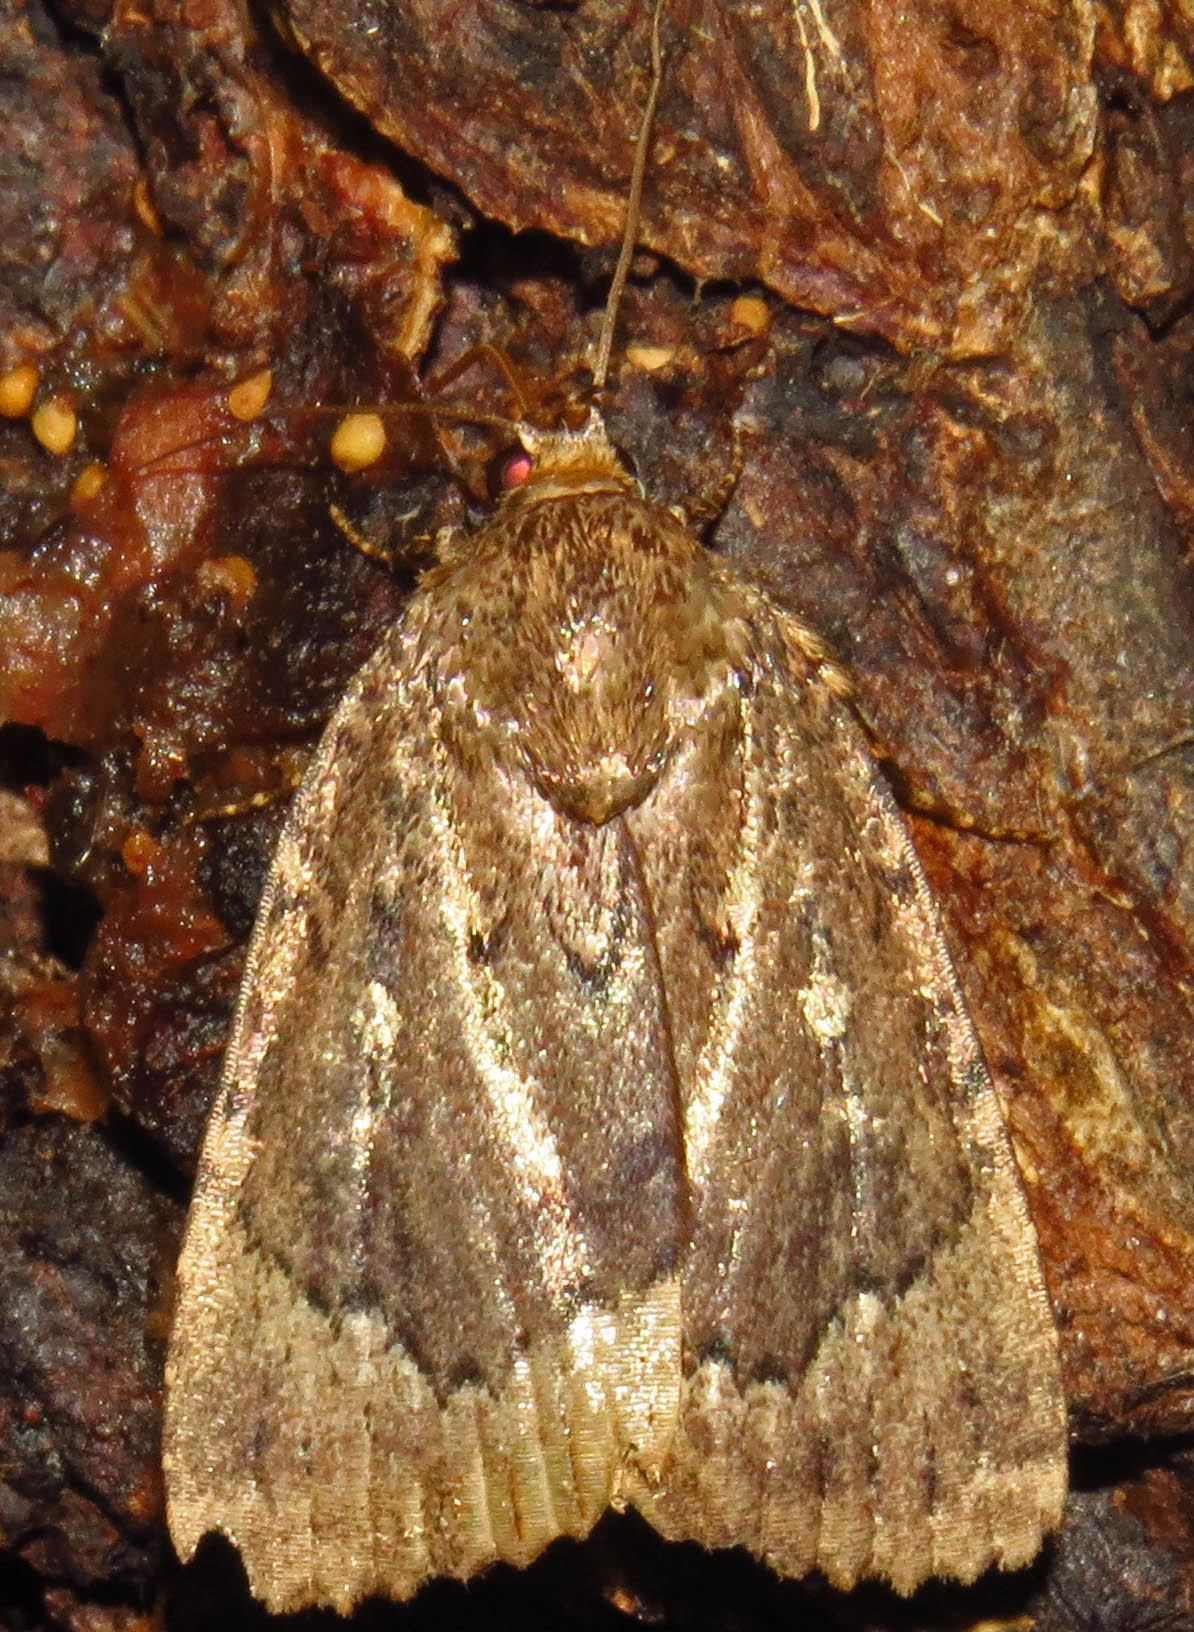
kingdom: Animalia
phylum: Arthropoda
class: Insecta
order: Lepidoptera
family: Noctuidae
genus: Amphipyra
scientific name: Amphipyra pyramidoides
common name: American copper underwing
